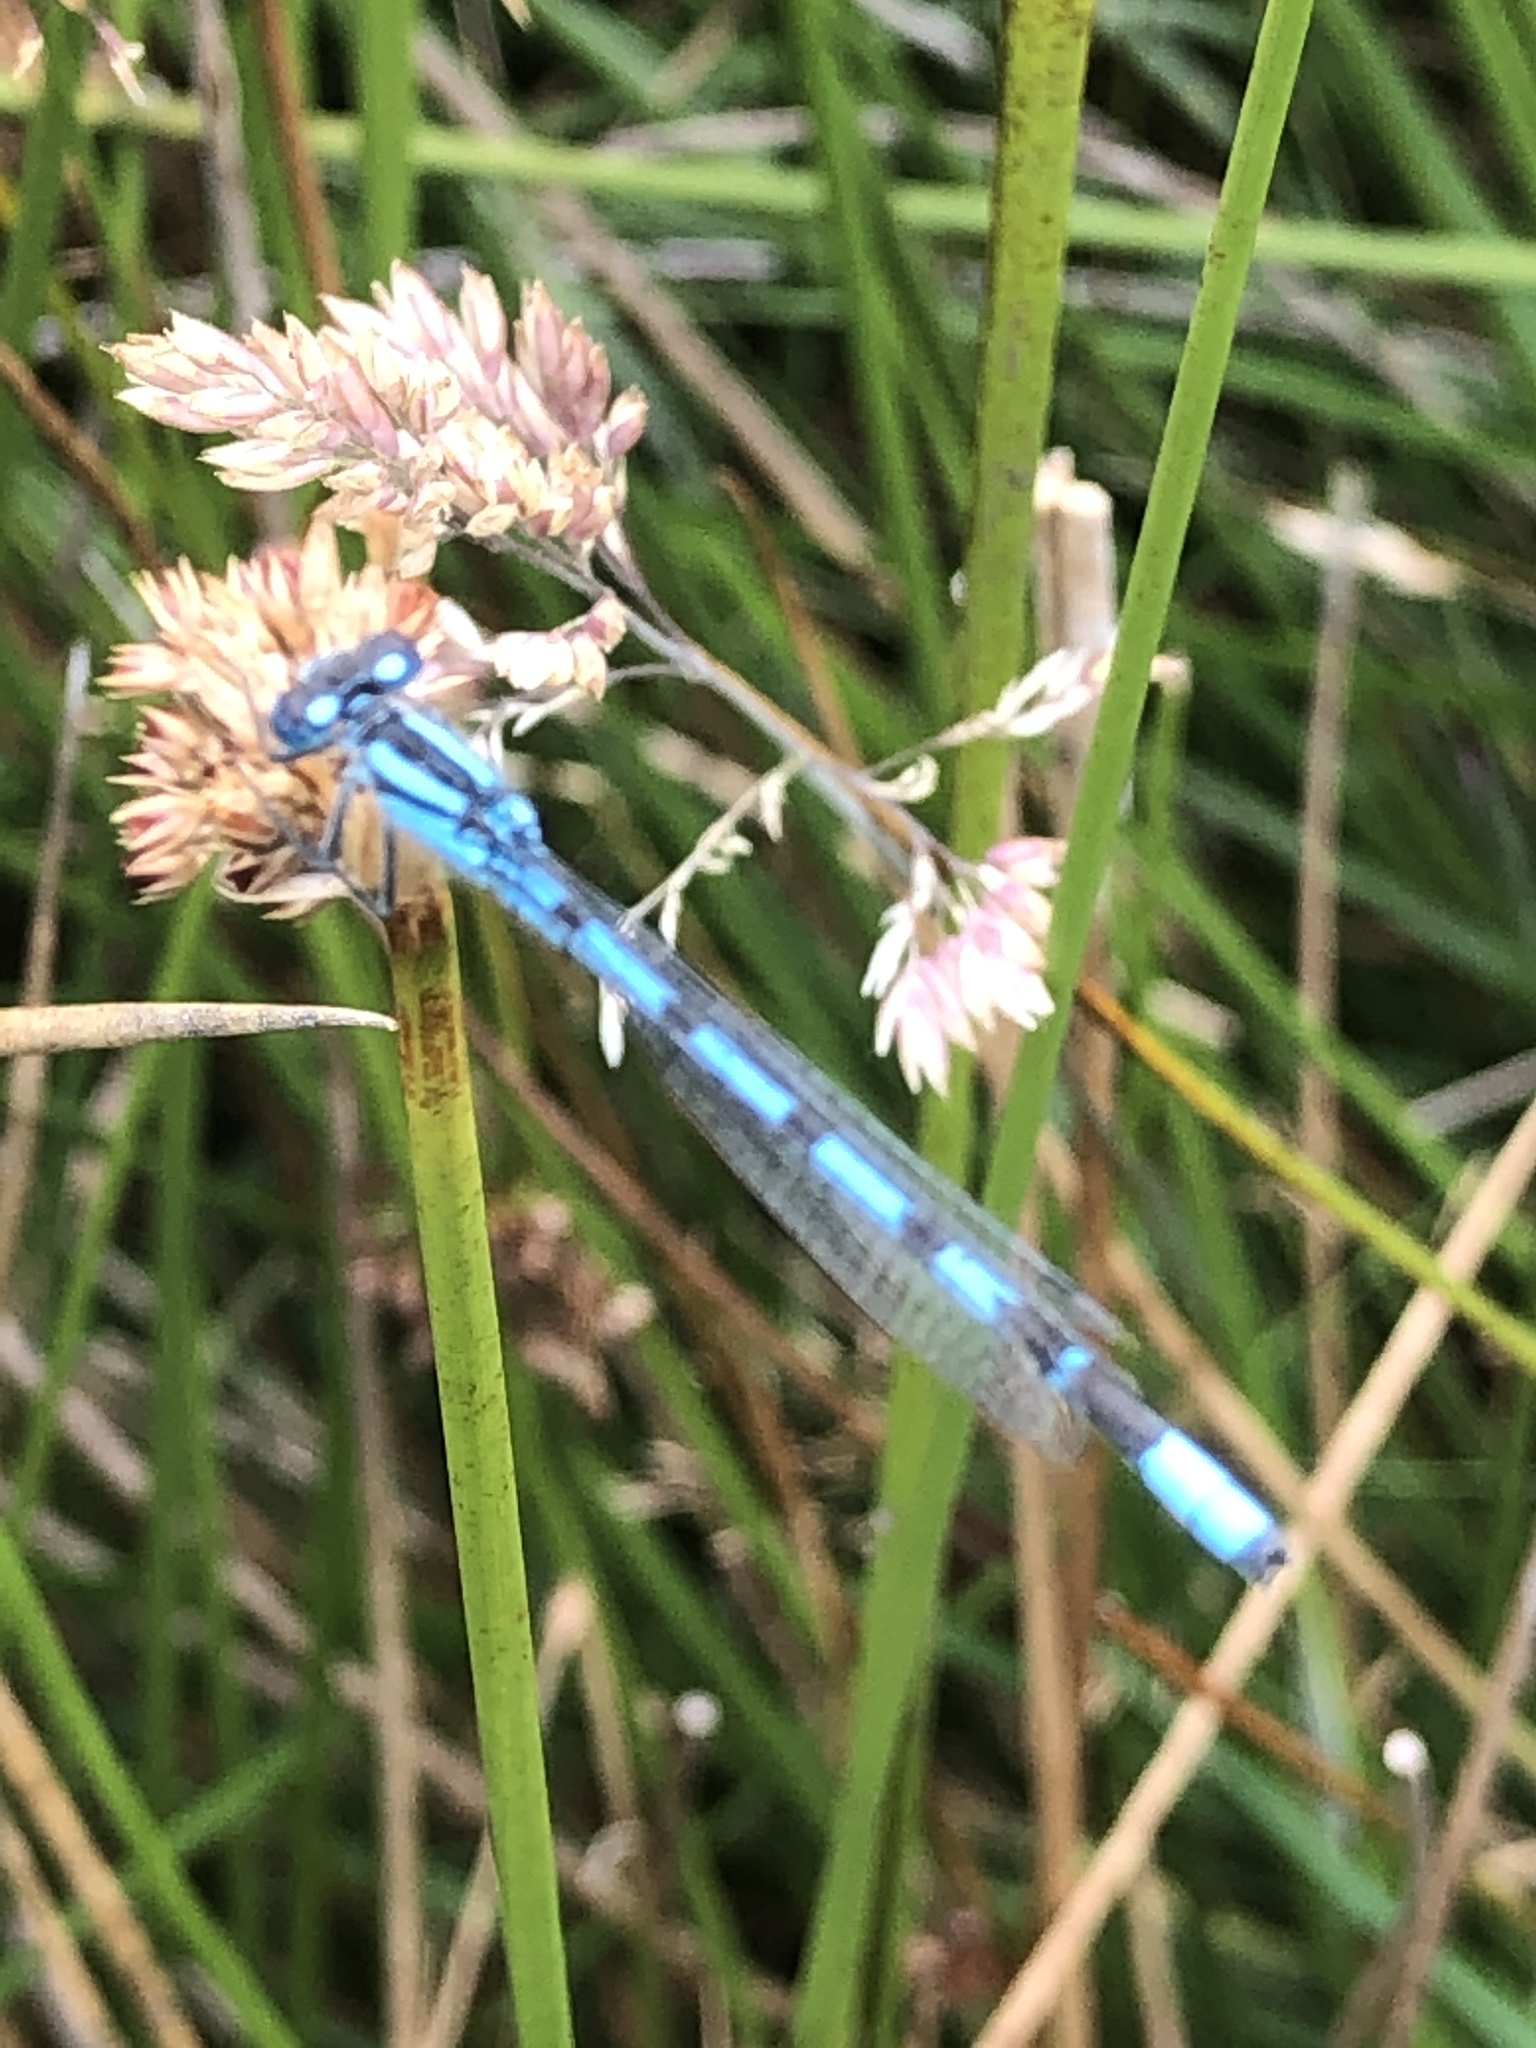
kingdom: Animalia
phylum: Arthropoda
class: Insecta
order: Odonata
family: Coenagrionidae
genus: Enallagma
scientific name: Enallagma cyathigerum
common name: Common blue damselfly
